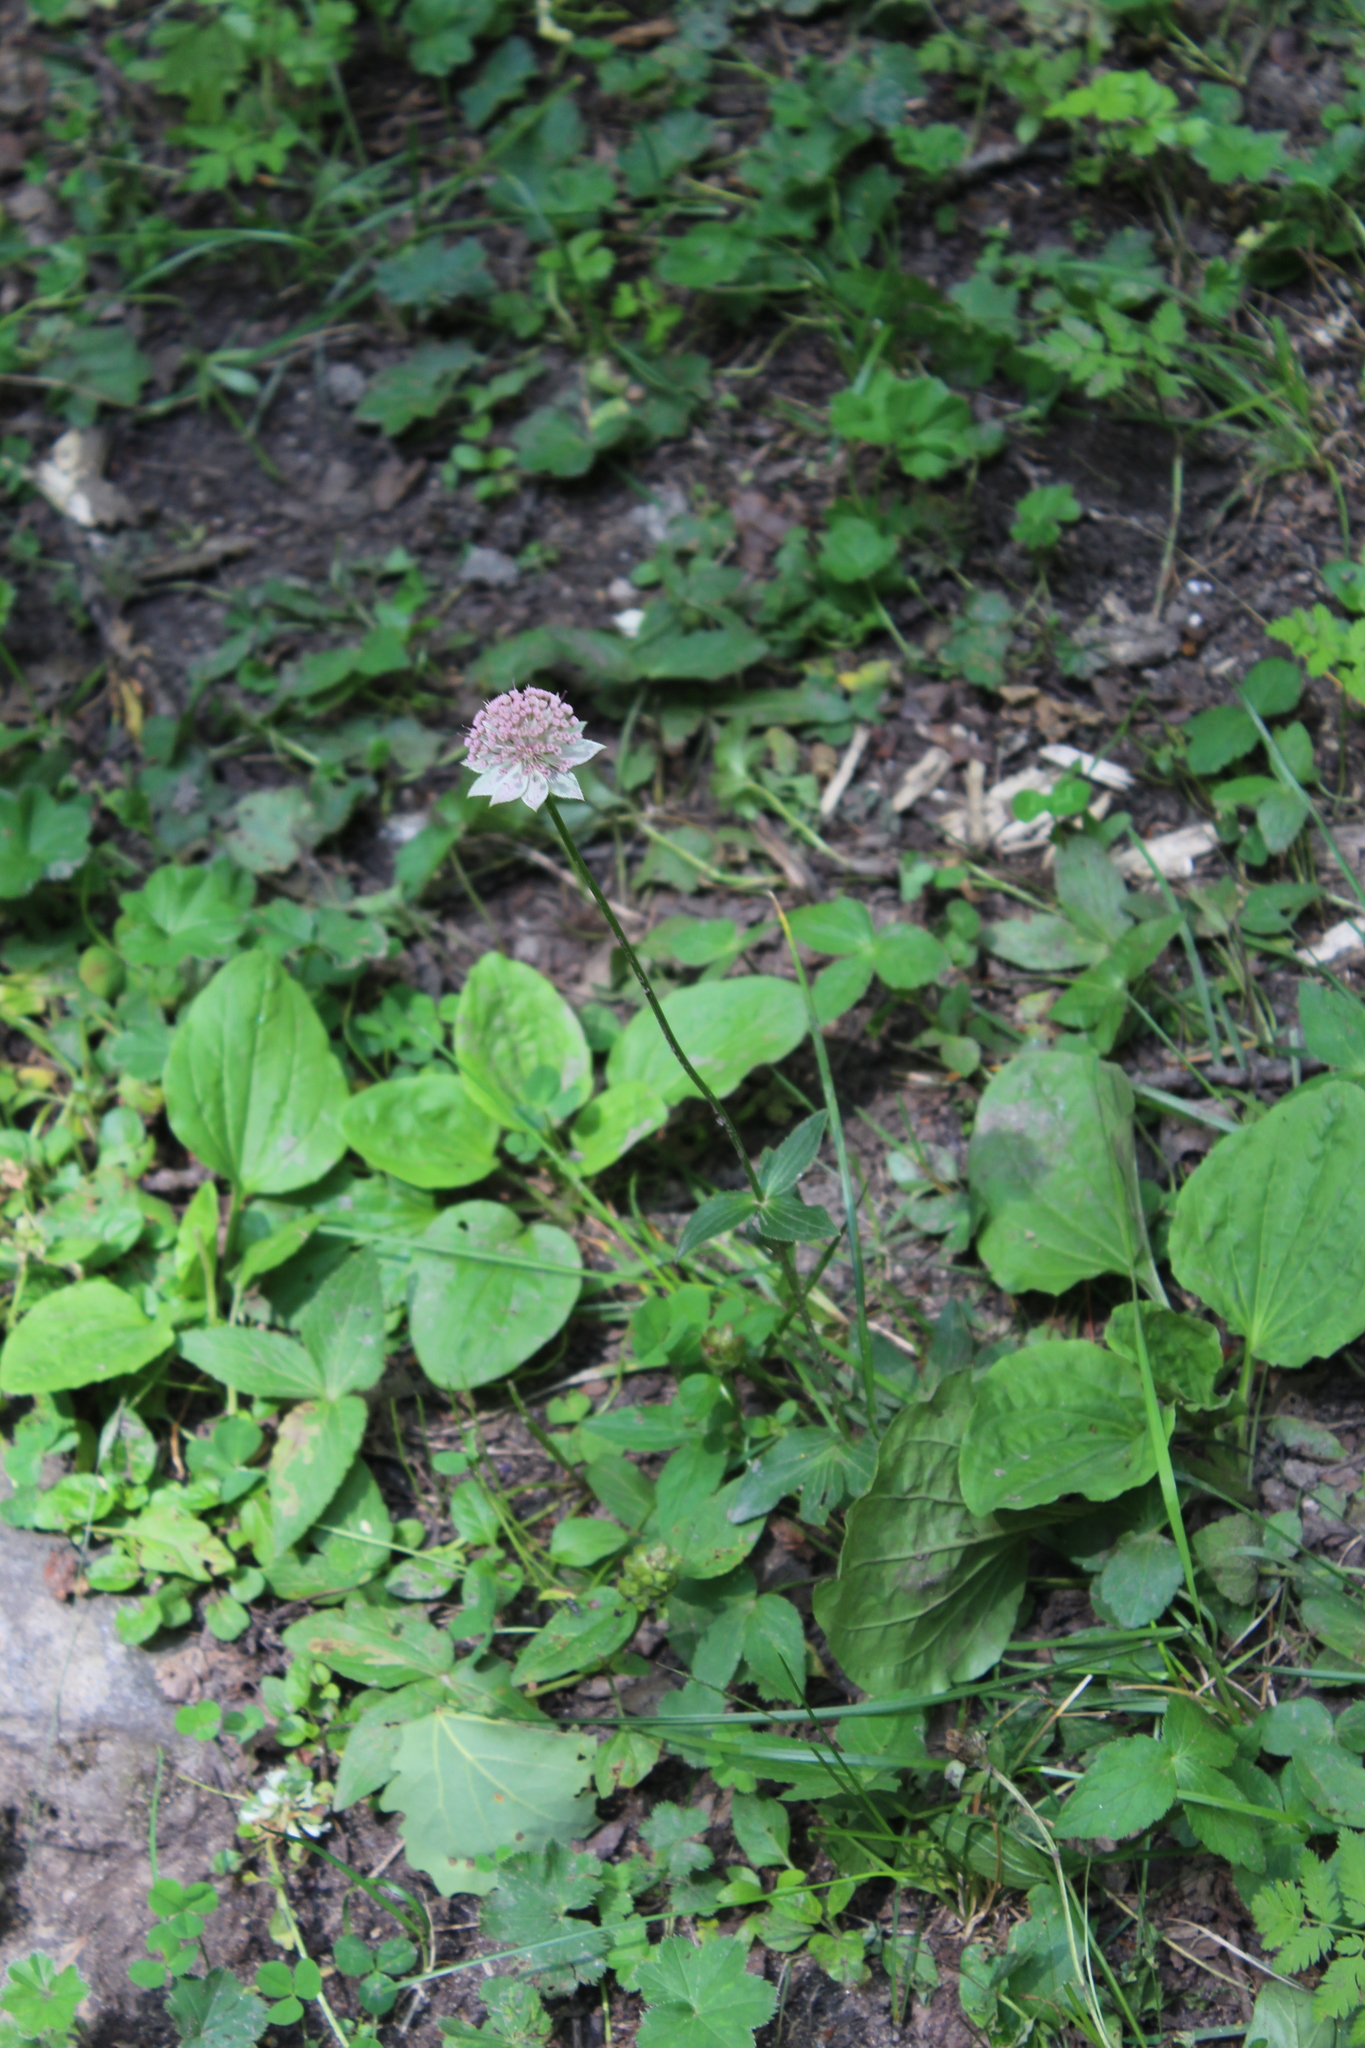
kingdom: Plantae
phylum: Tracheophyta
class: Magnoliopsida
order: Apiales
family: Apiaceae
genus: Astrantia
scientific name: Astrantia maxima
